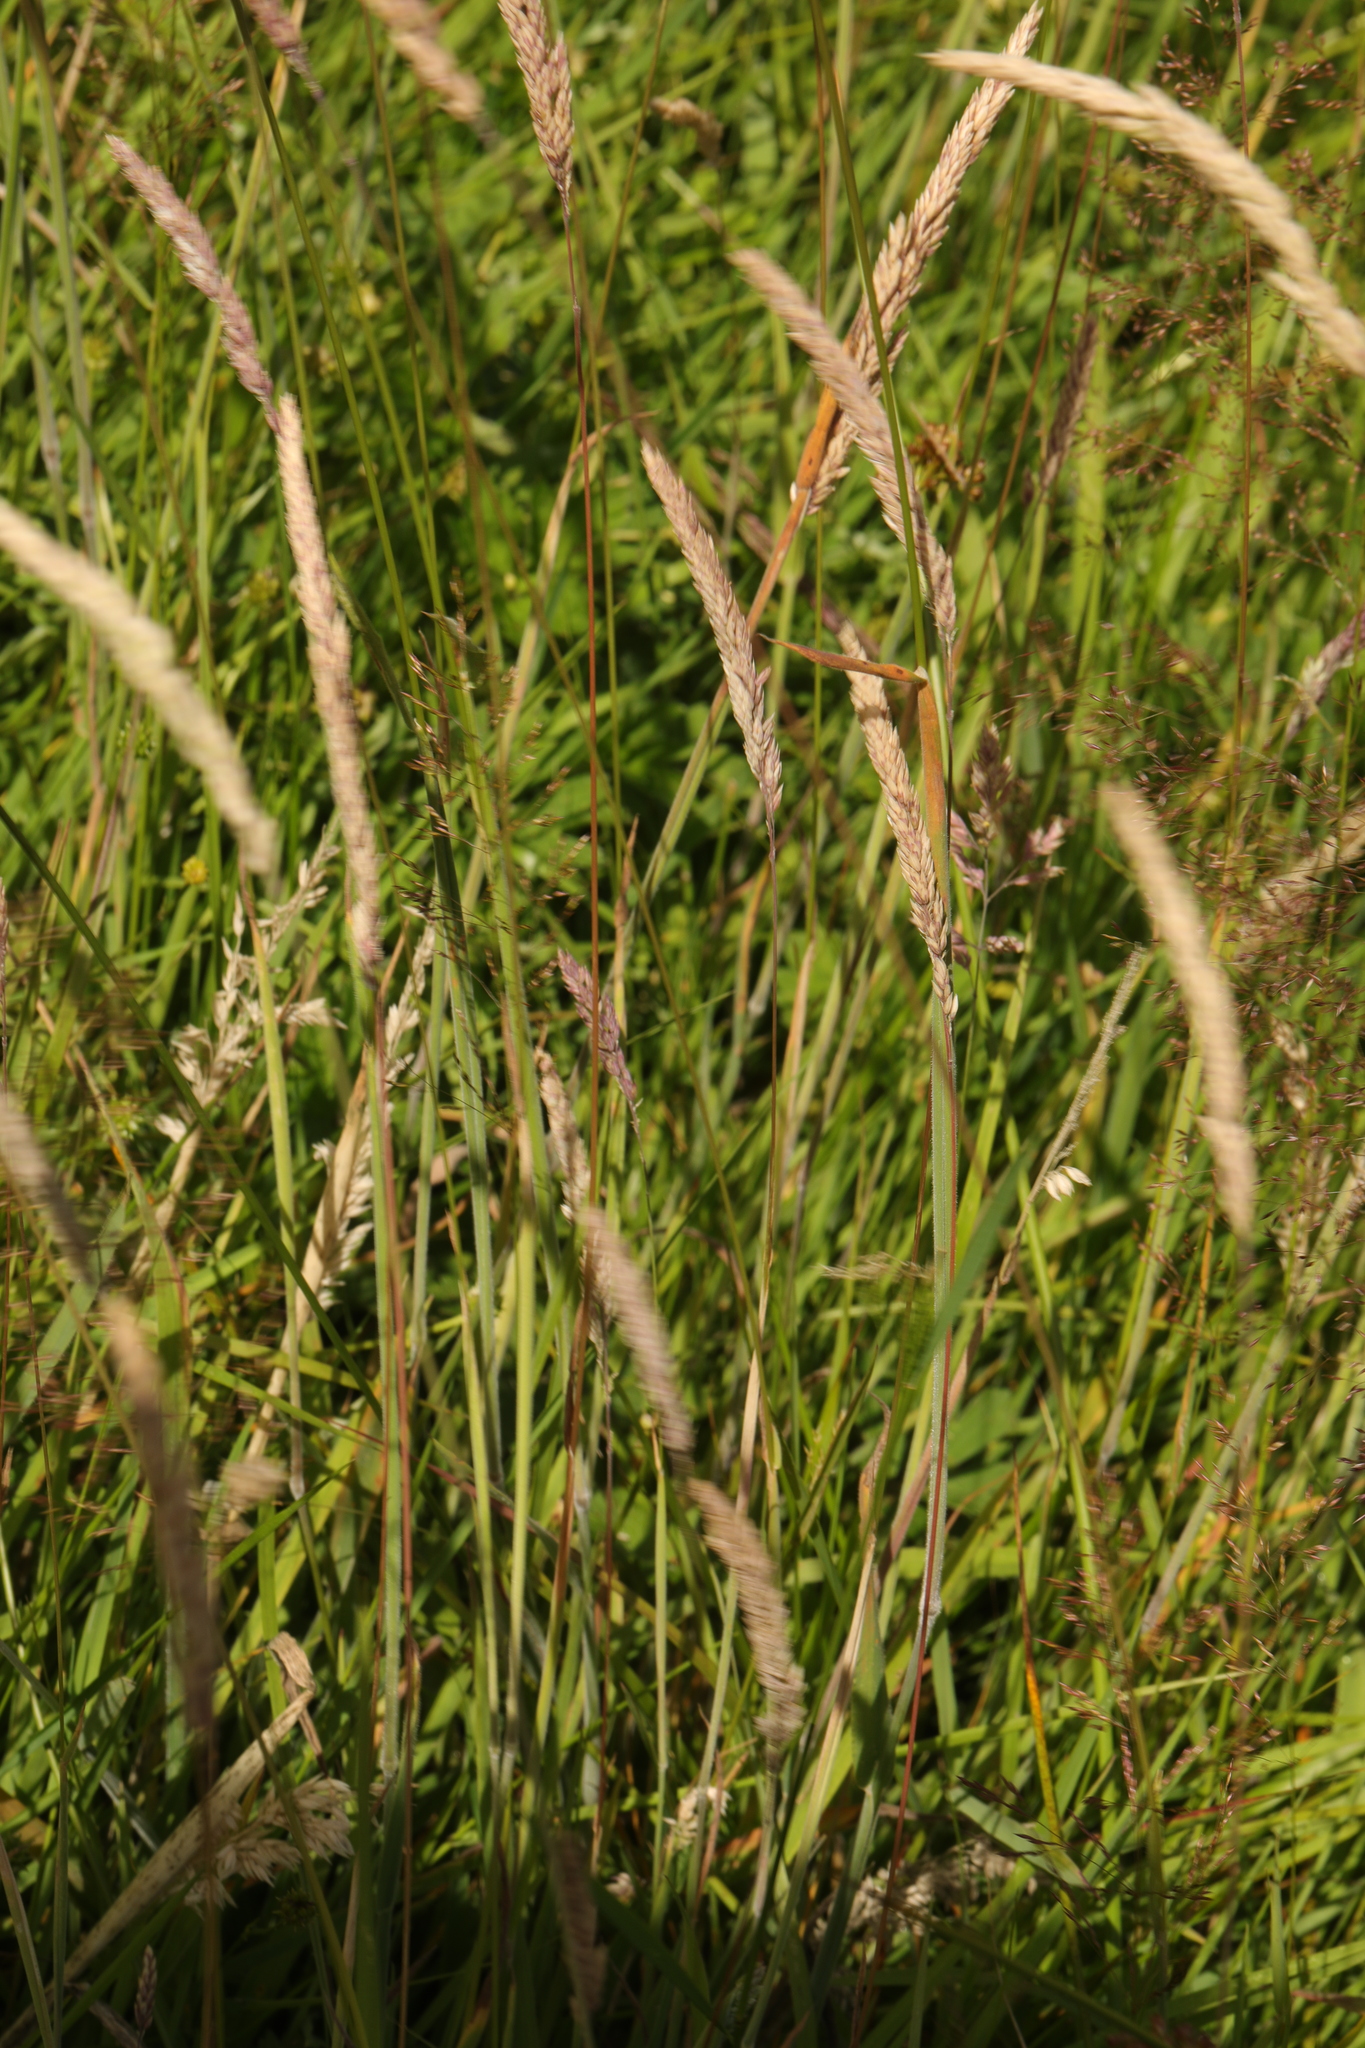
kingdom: Plantae
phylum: Tracheophyta
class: Liliopsida
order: Poales
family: Poaceae
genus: Holcus
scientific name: Holcus lanatus
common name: Yorkshire-fog
